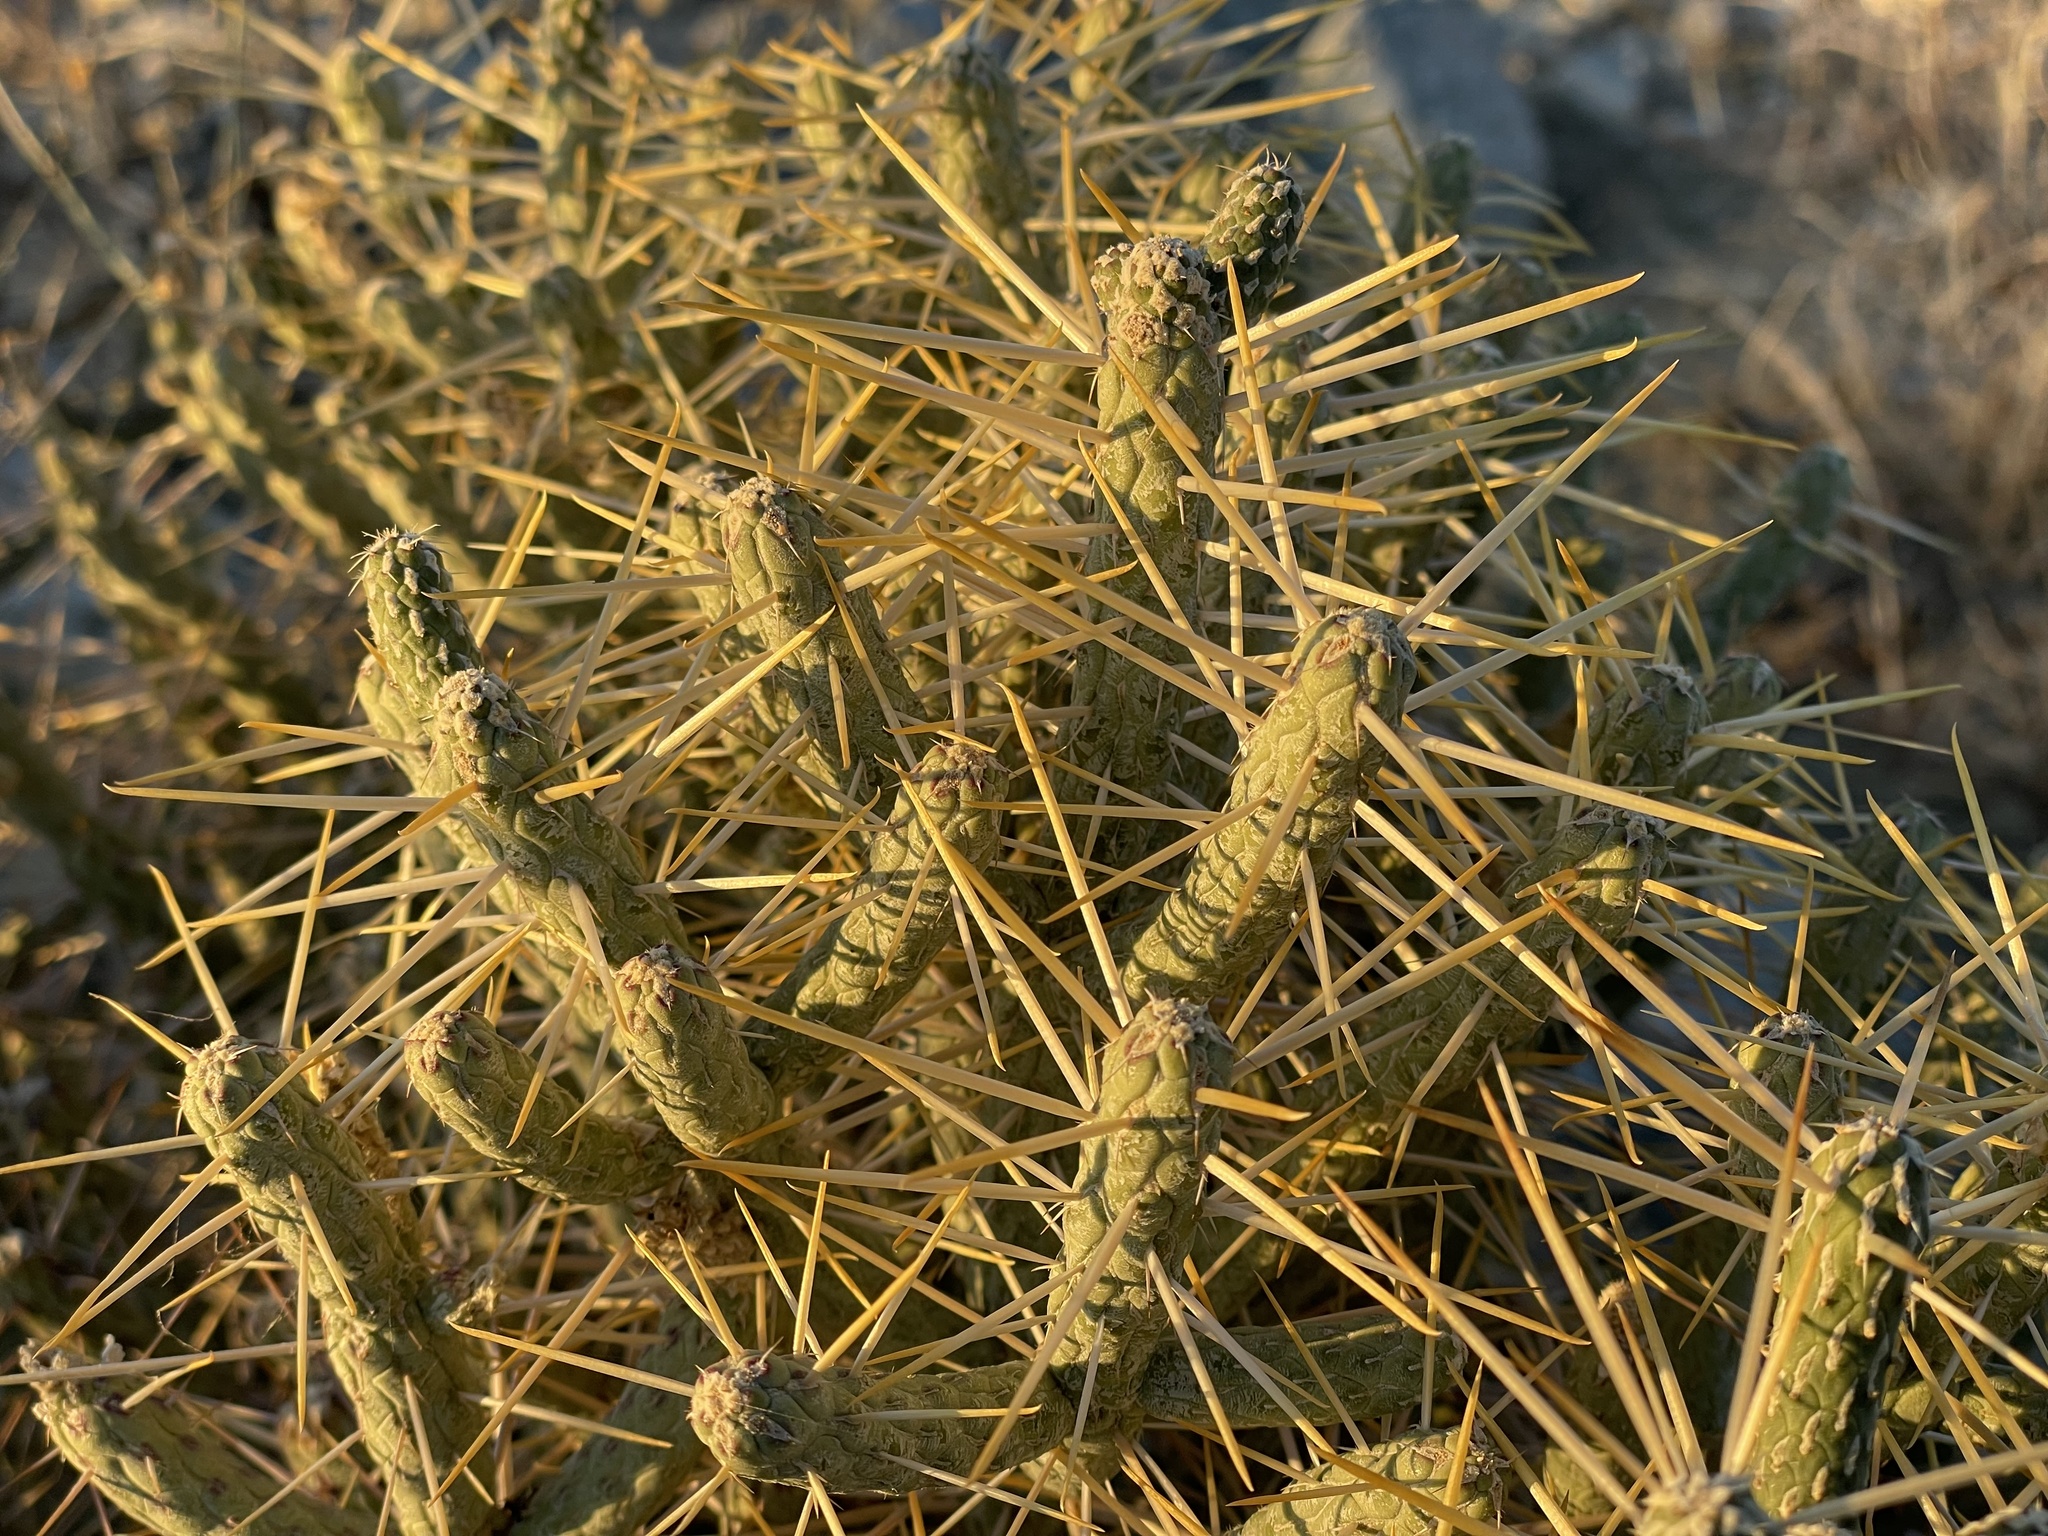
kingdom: Plantae
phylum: Tracheophyta
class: Magnoliopsida
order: Caryophyllales
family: Cactaceae
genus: Cylindropuntia
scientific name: Cylindropuntia ramosissima
